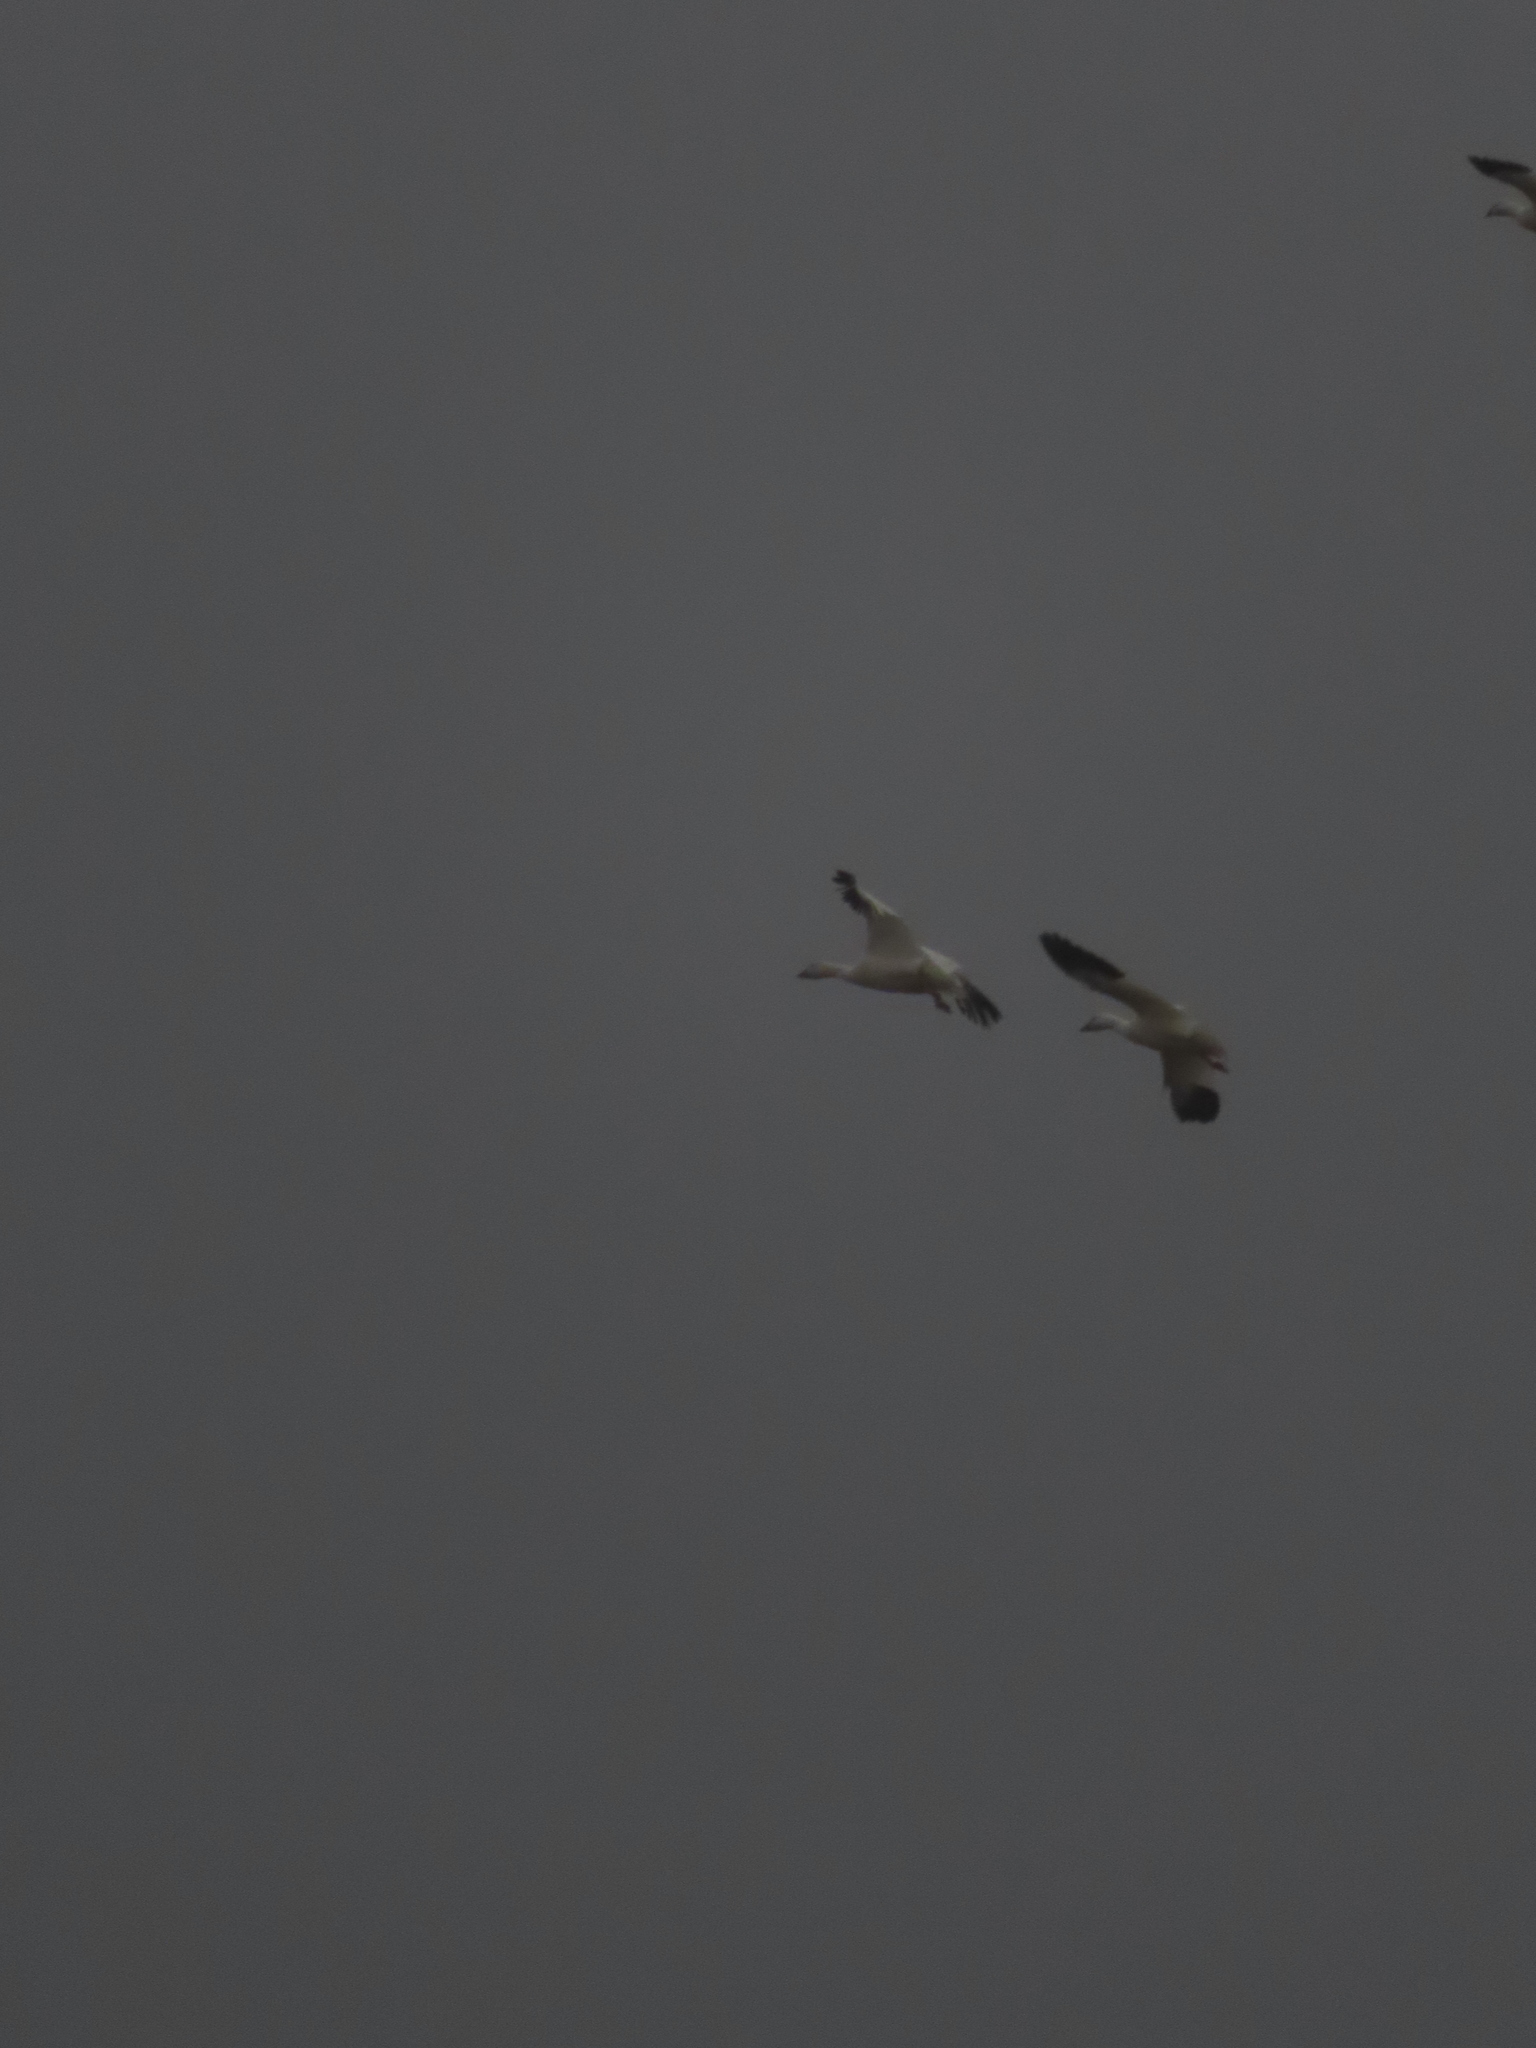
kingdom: Animalia
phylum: Chordata
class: Aves
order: Anseriformes
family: Anatidae
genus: Anser
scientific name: Anser caerulescens
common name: Snow goose
